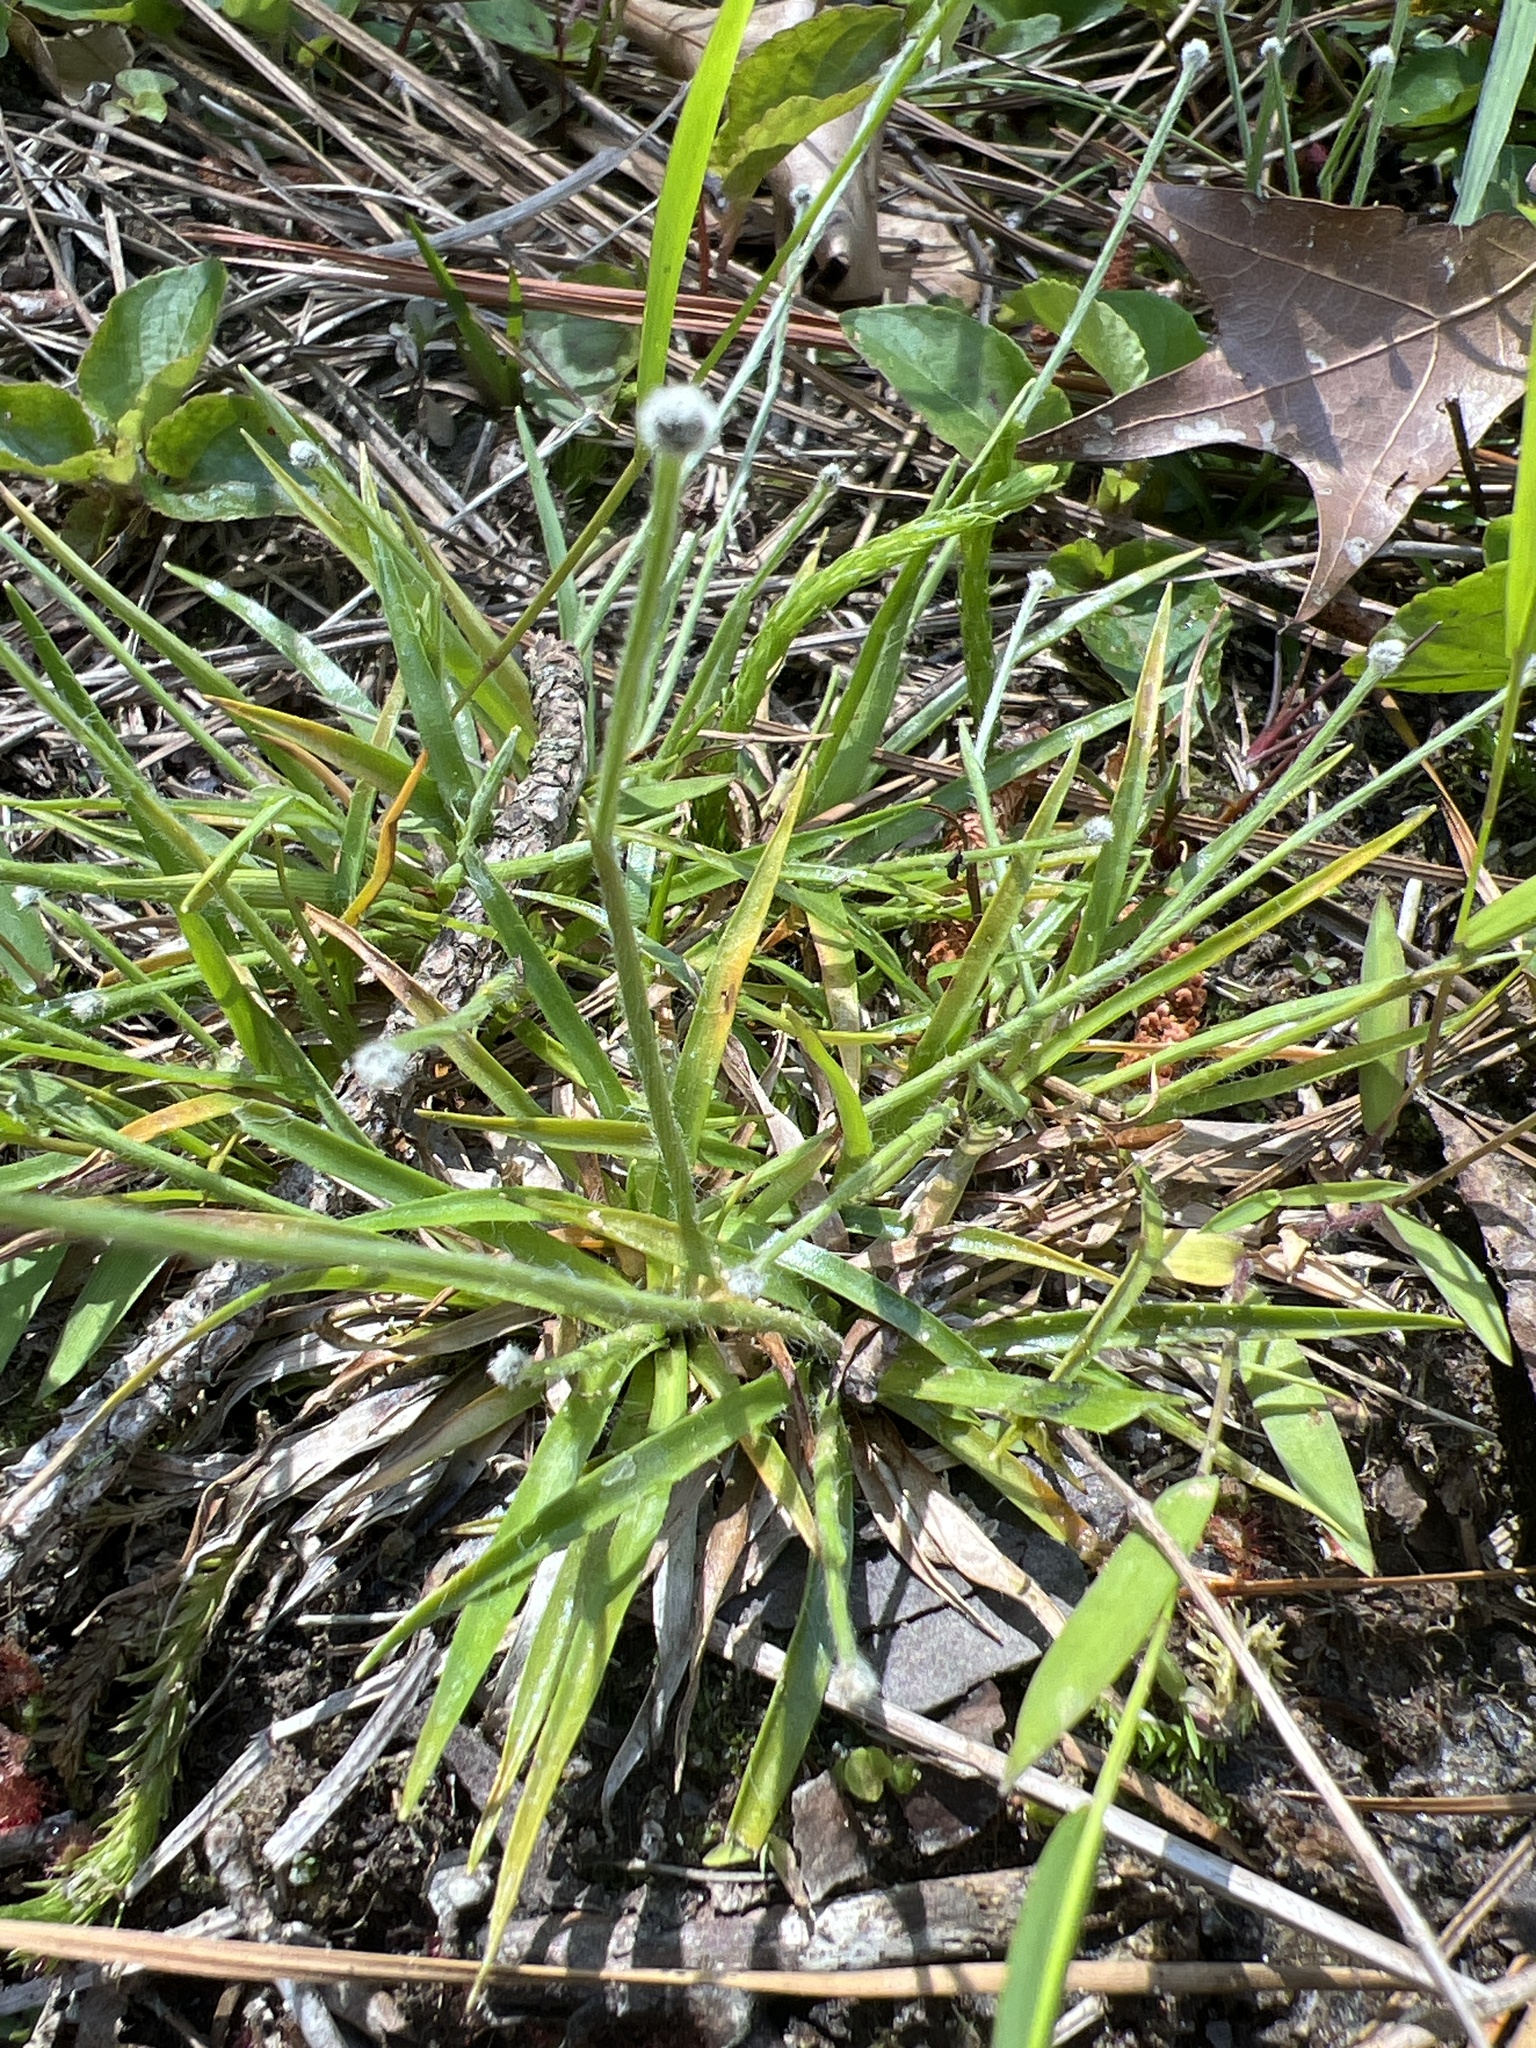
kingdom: Plantae
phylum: Tracheophyta
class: Liliopsida
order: Poales
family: Eriocaulaceae
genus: Paepalanthus
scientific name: Paepalanthus anceps
